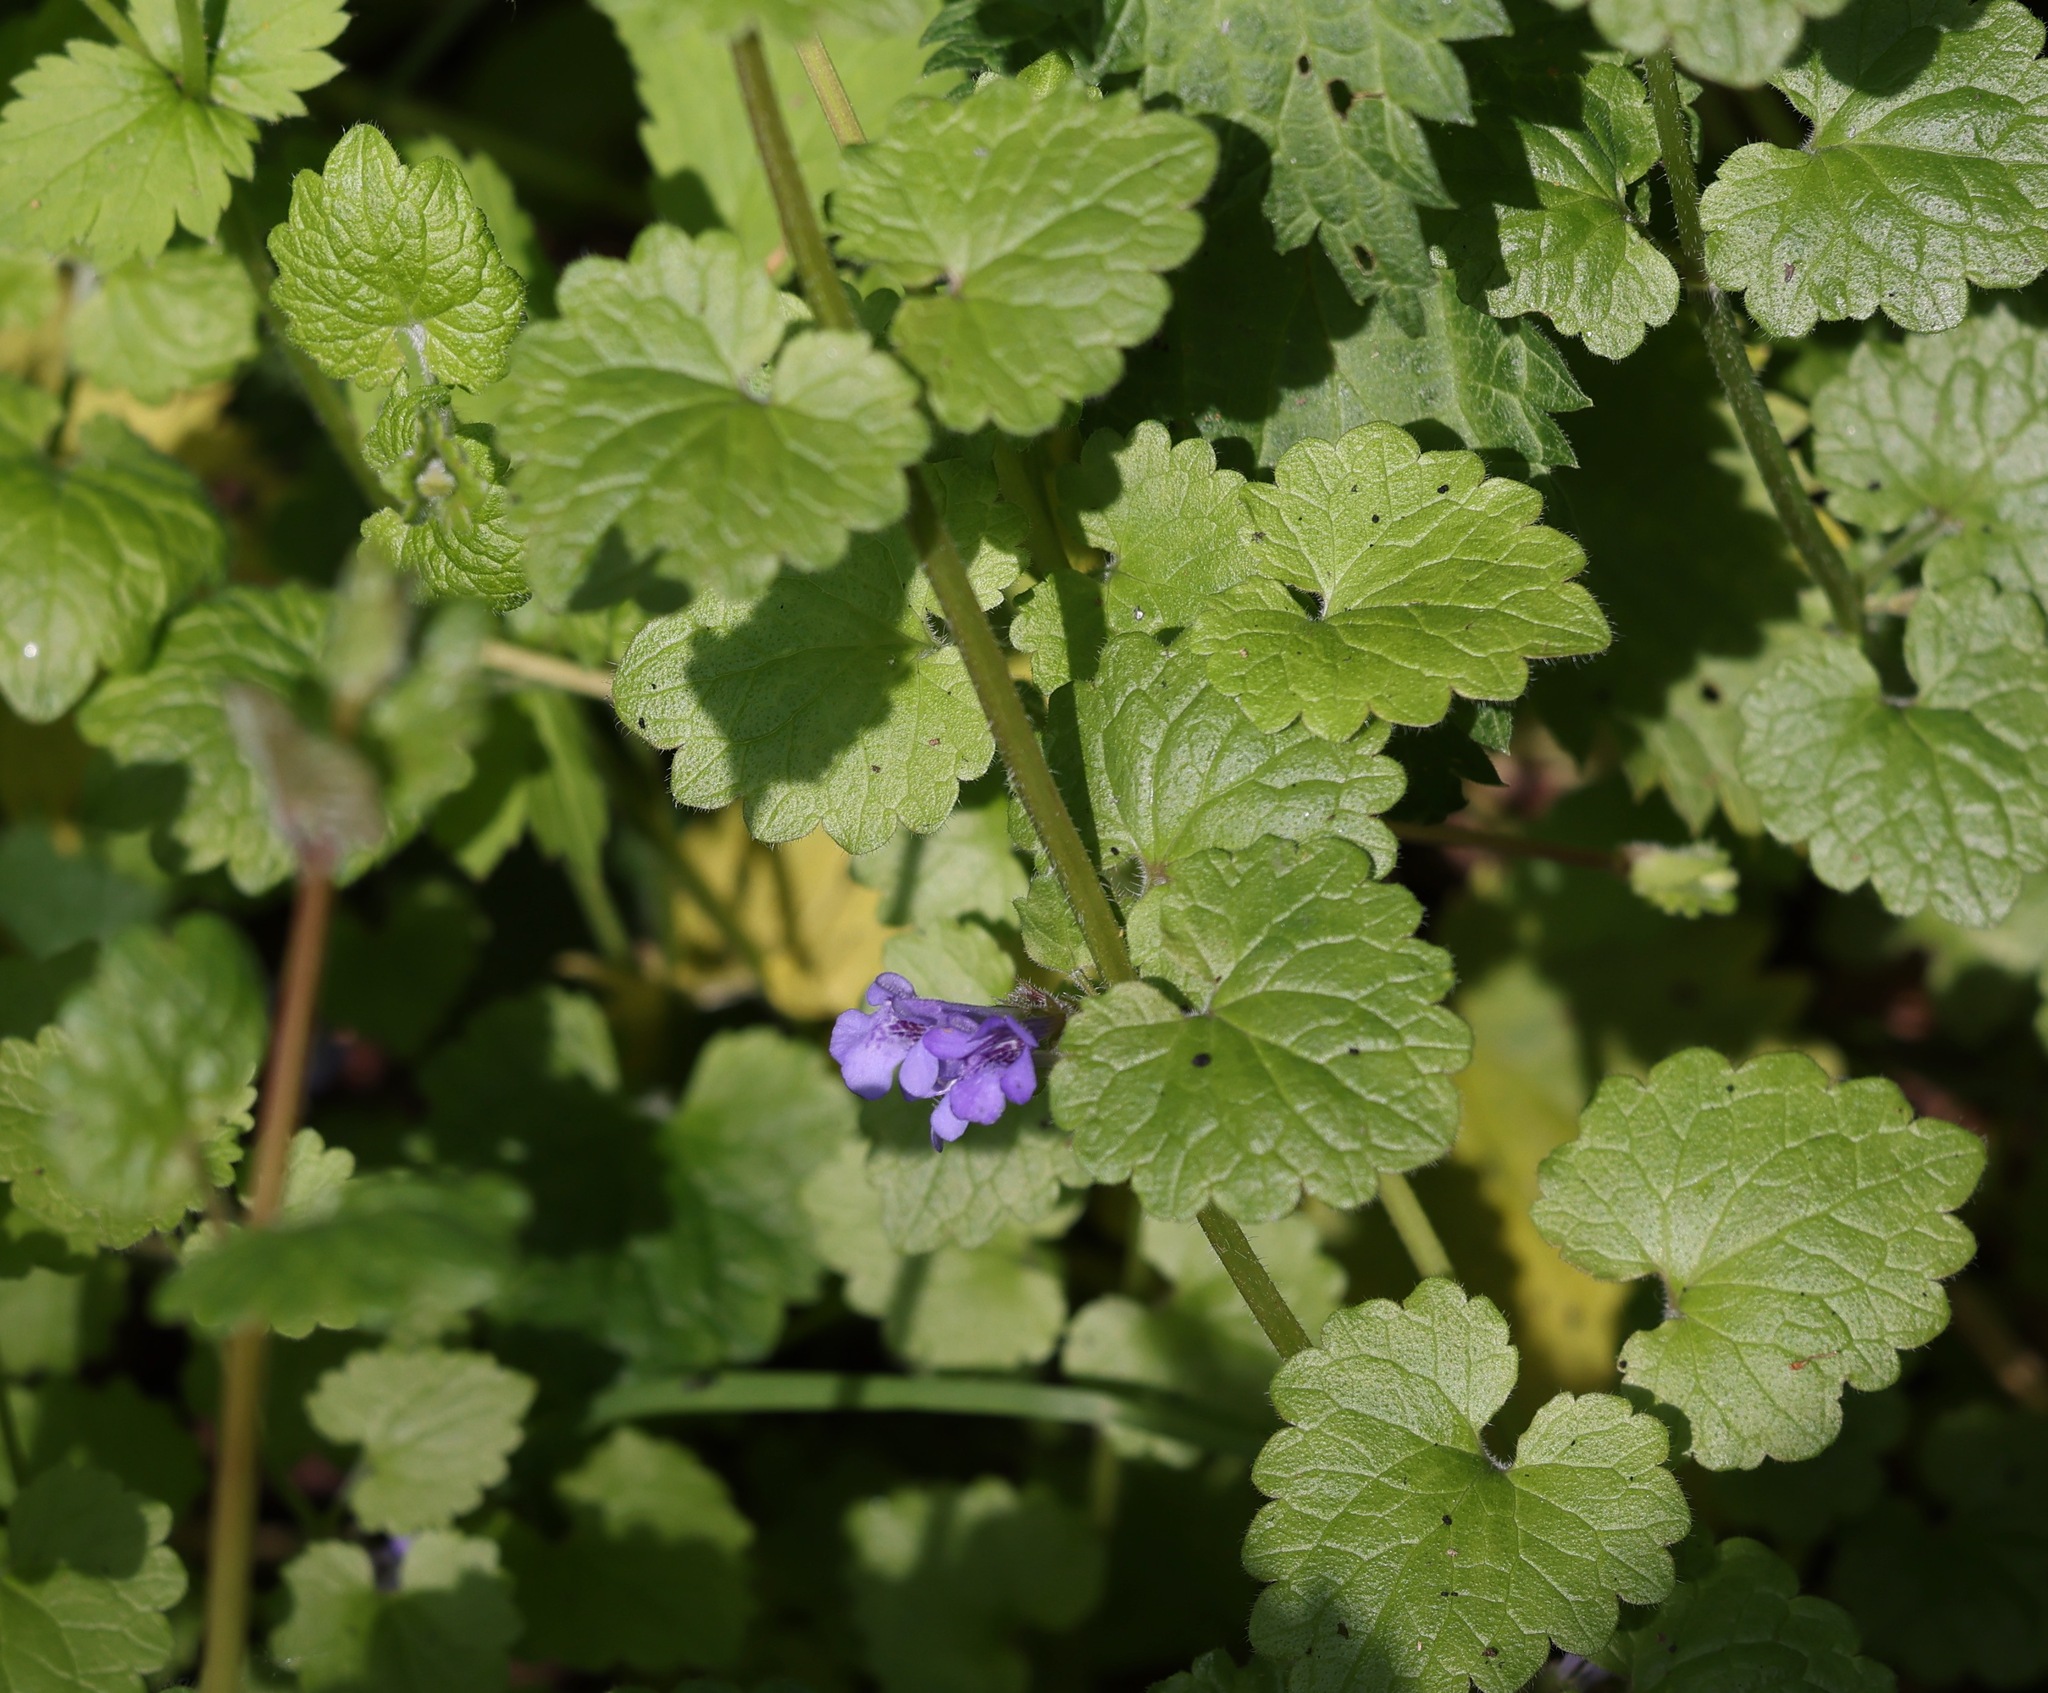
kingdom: Plantae
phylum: Tracheophyta
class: Magnoliopsida
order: Lamiales
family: Lamiaceae
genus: Glechoma
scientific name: Glechoma hederacea
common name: Ground ivy
